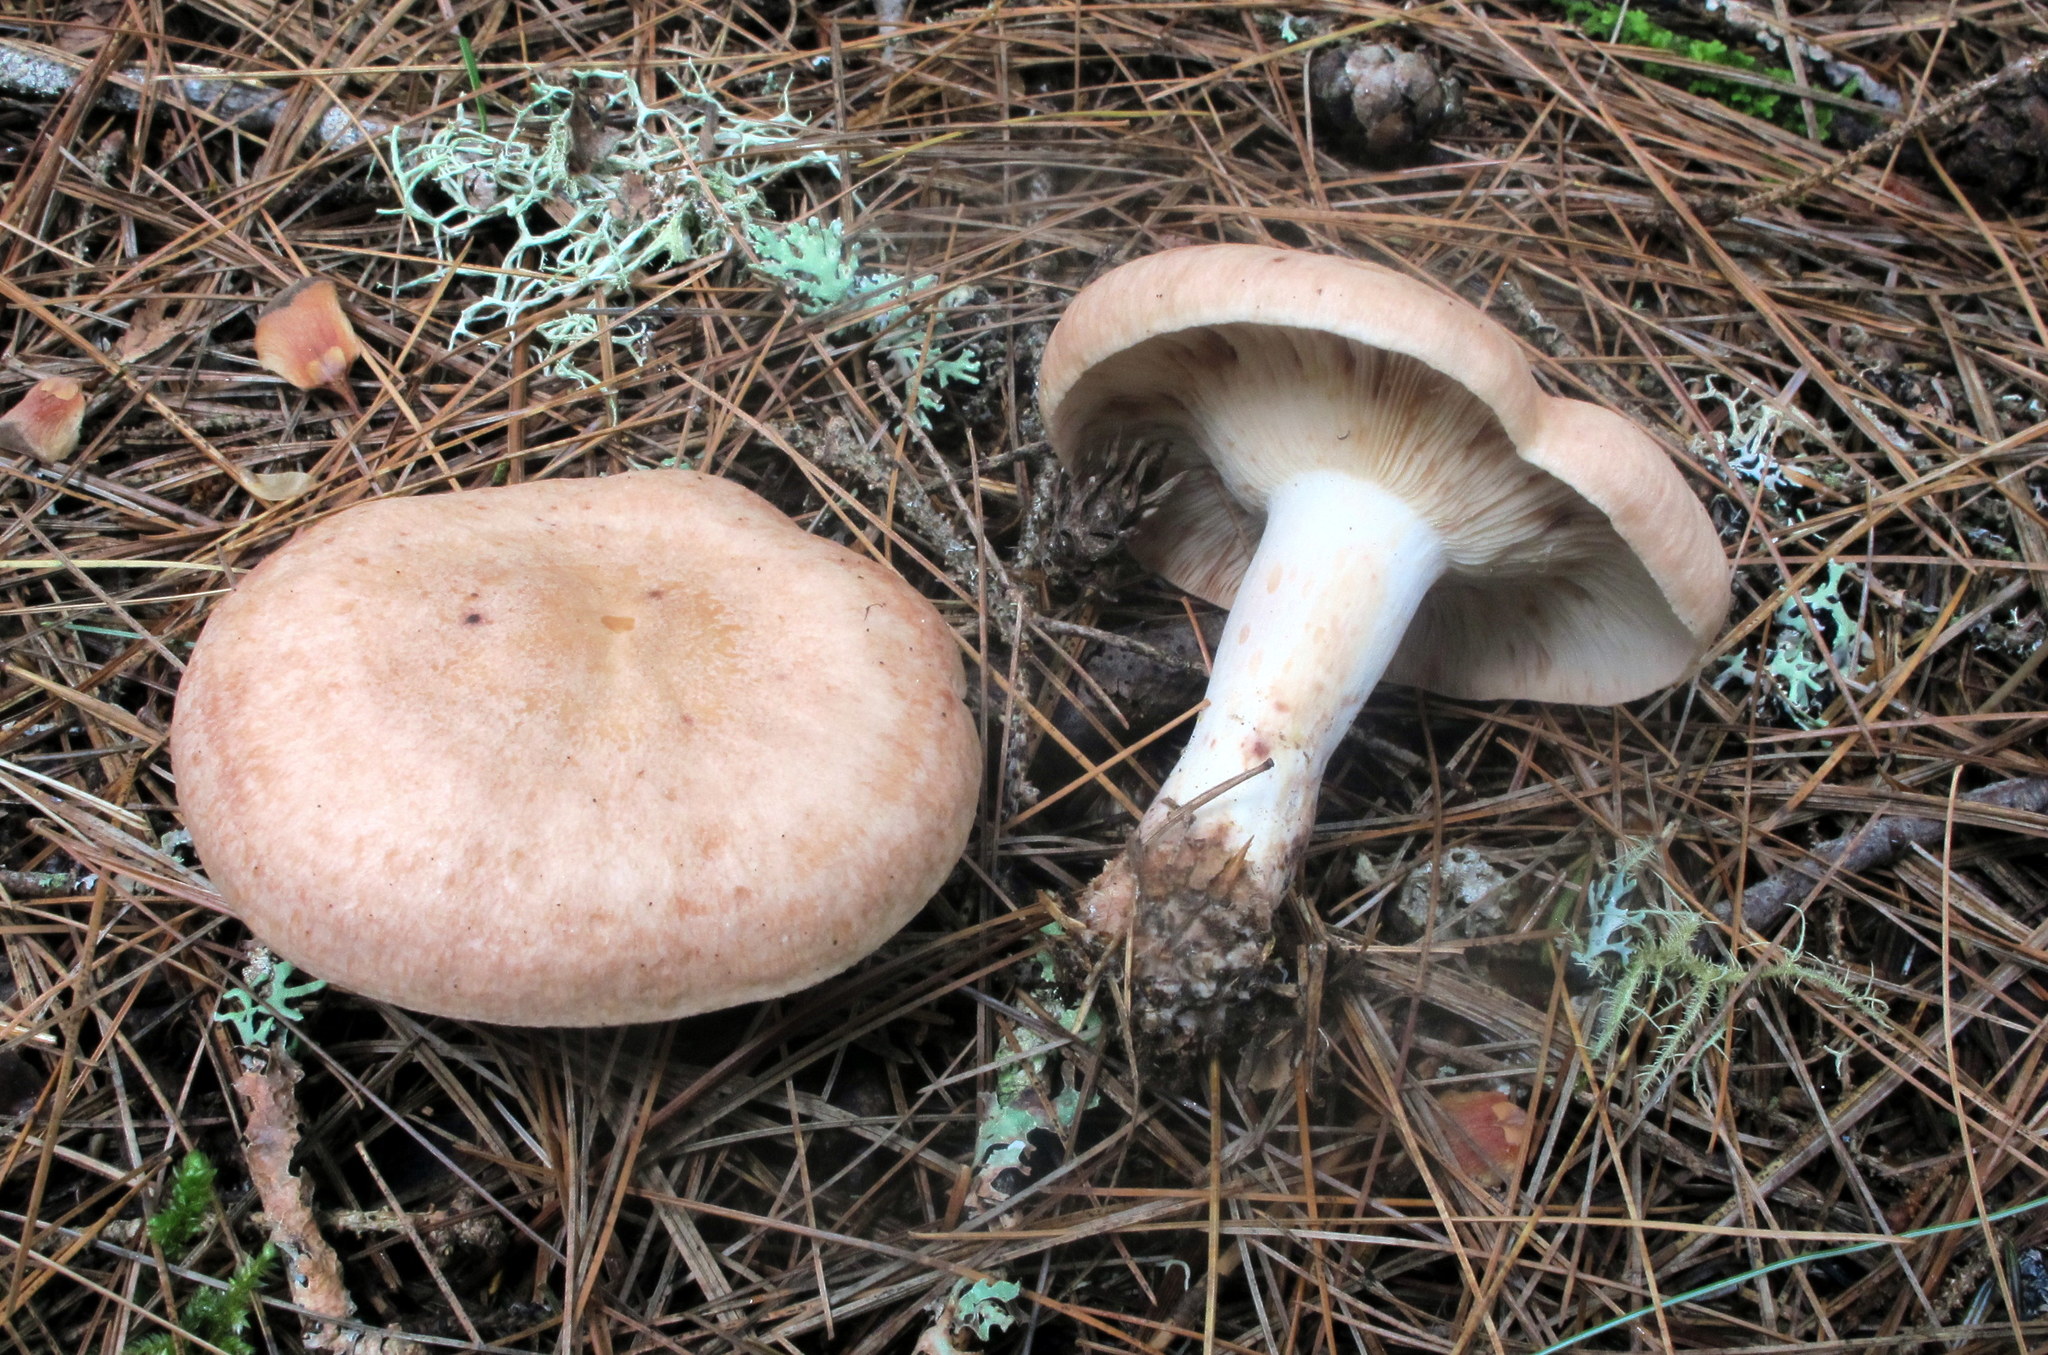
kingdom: Fungi
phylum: Basidiomycota
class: Agaricomycetes
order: Russulales
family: Russulaceae
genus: Lactarius
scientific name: Lactarius vinaceorufescens
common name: Yellow-latex milkcap
